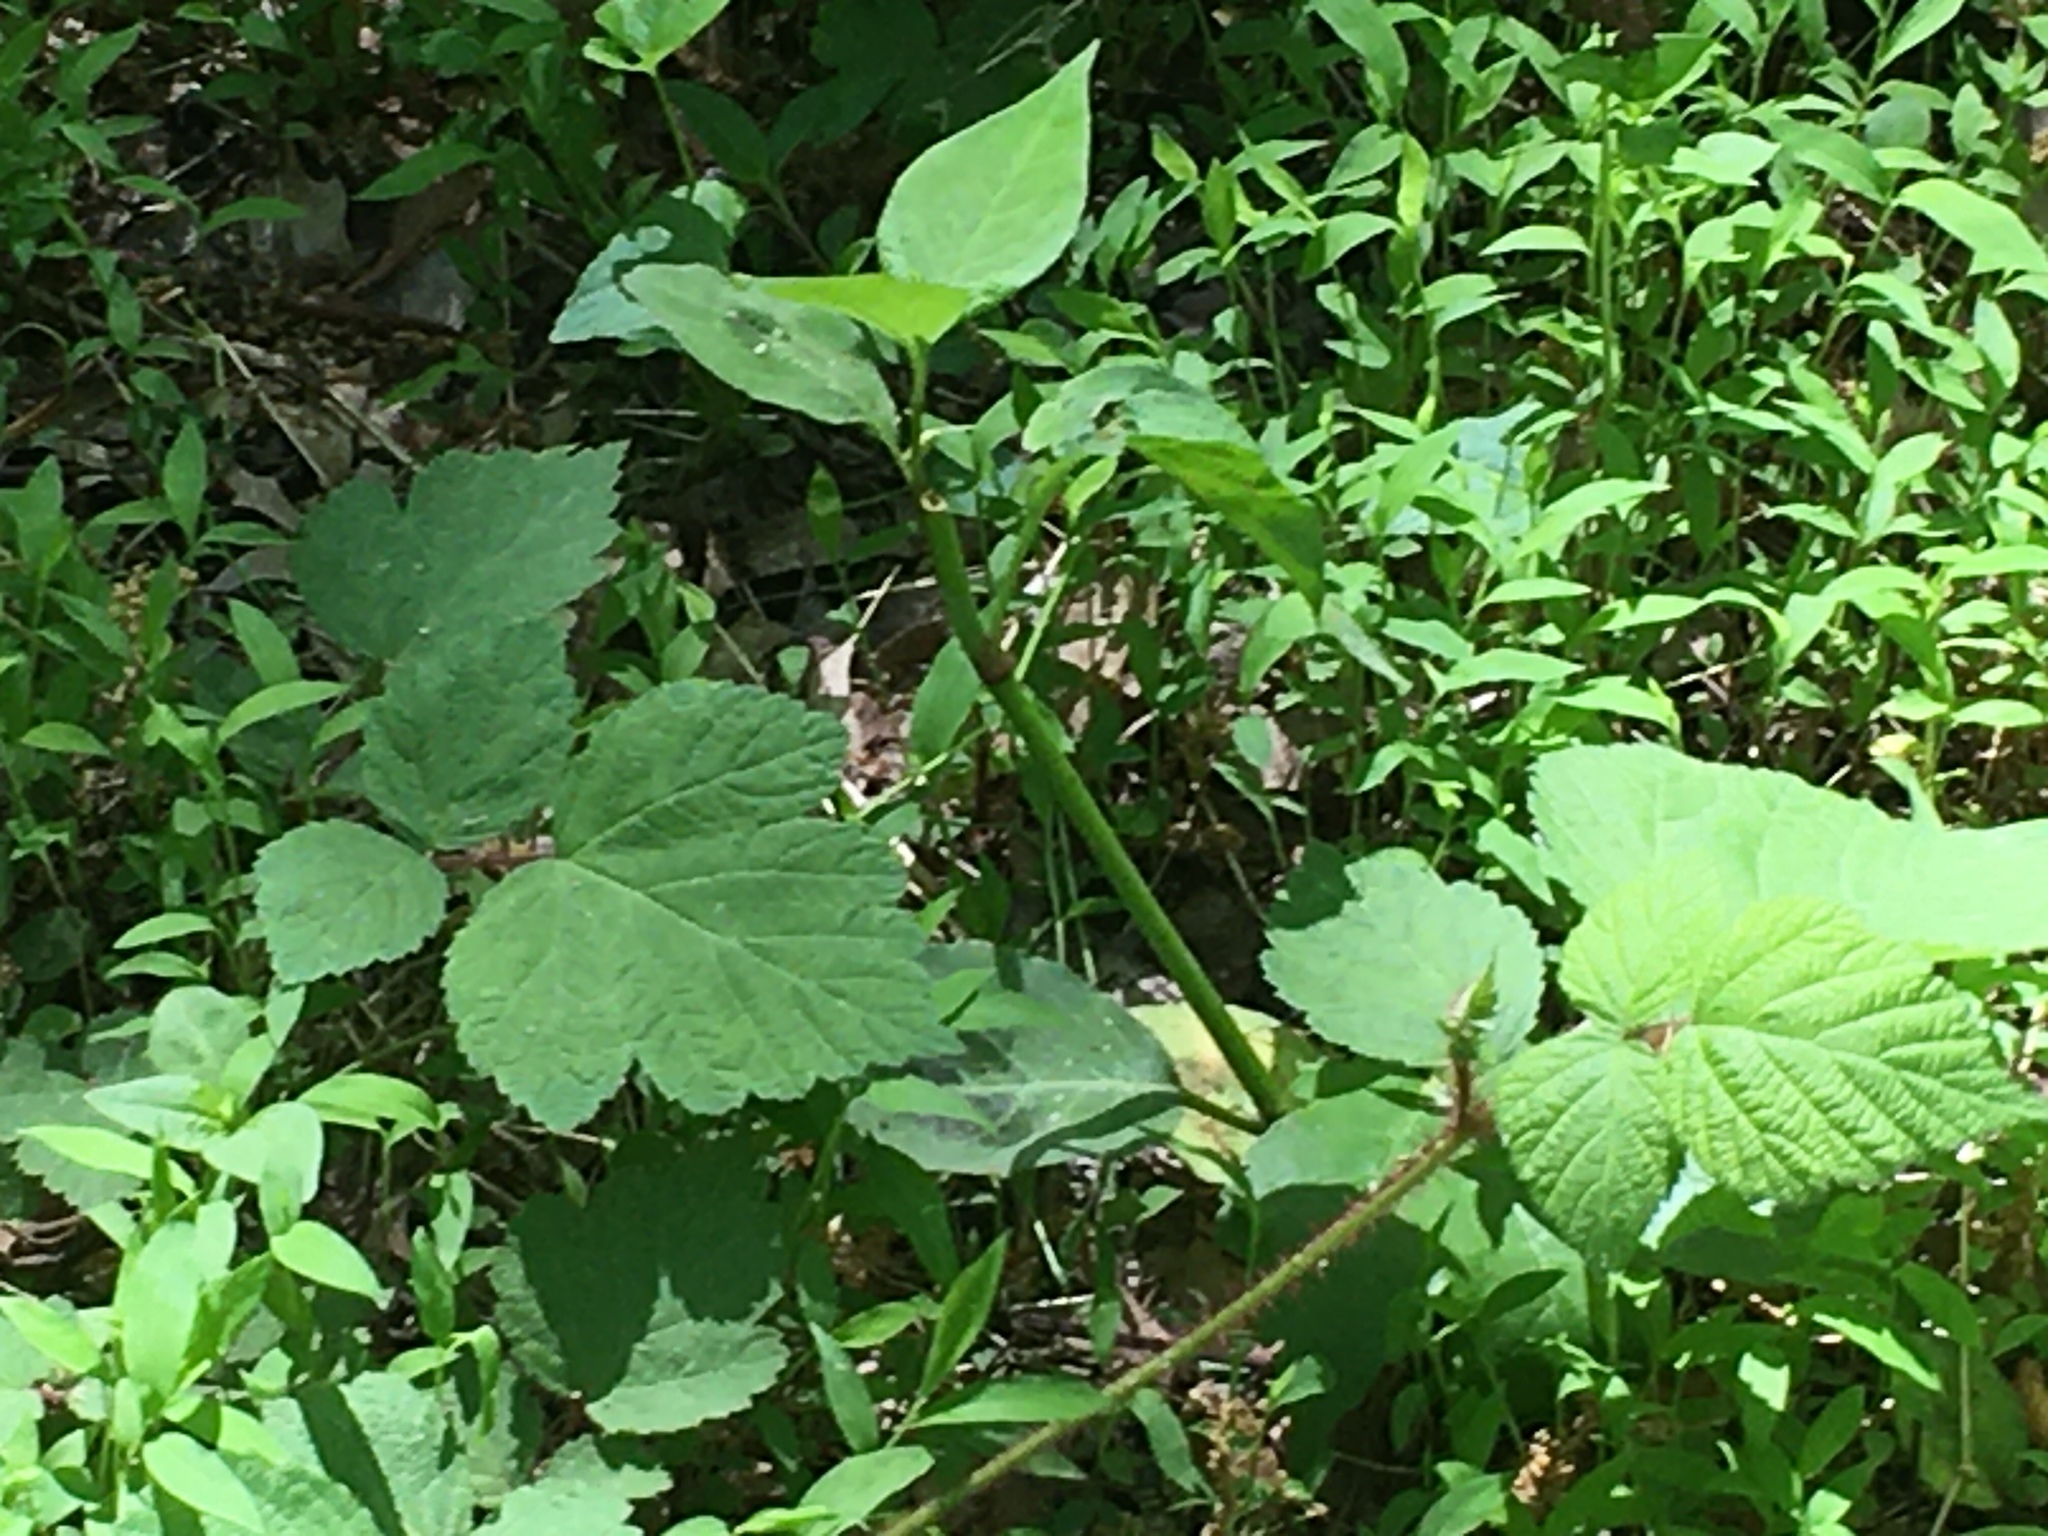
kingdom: Plantae
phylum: Tracheophyta
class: Magnoliopsida
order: Rosales
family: Rosaceae
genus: Rubus
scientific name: Rubus phoenicolasius
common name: Japanese wineberry
